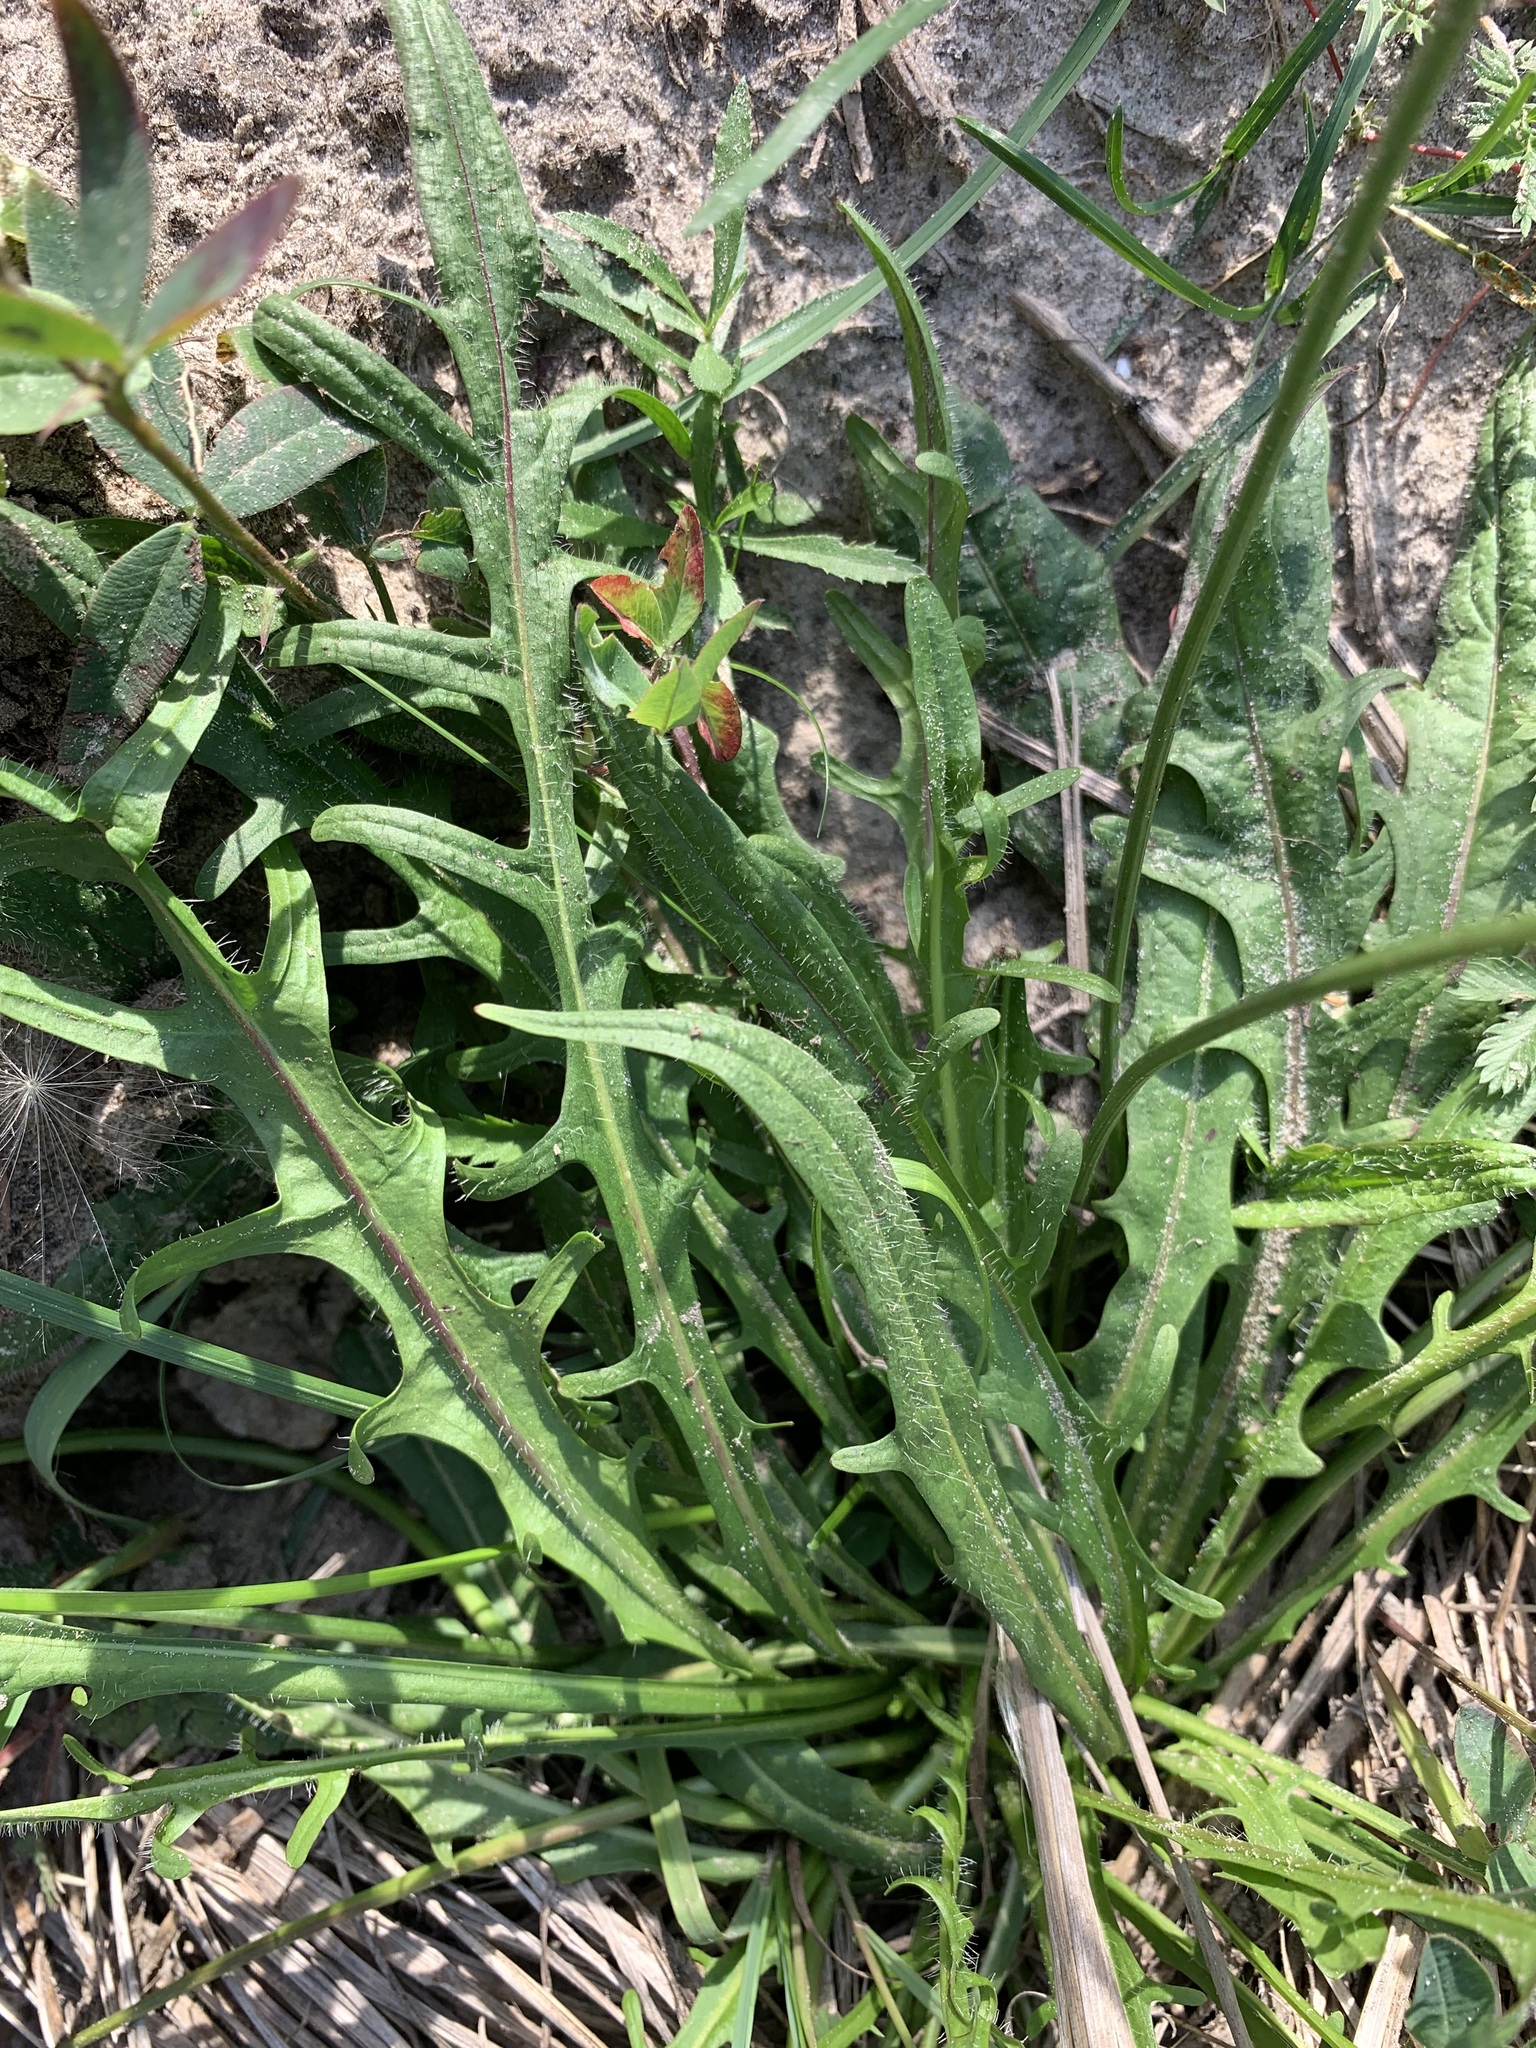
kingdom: Plantae
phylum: Tracheophyta
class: Magnoliopsida
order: Asterales
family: Asteraceae
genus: Scorzoneroides
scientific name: Scorzoneroides autumnalis
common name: Autumn hawkbit
